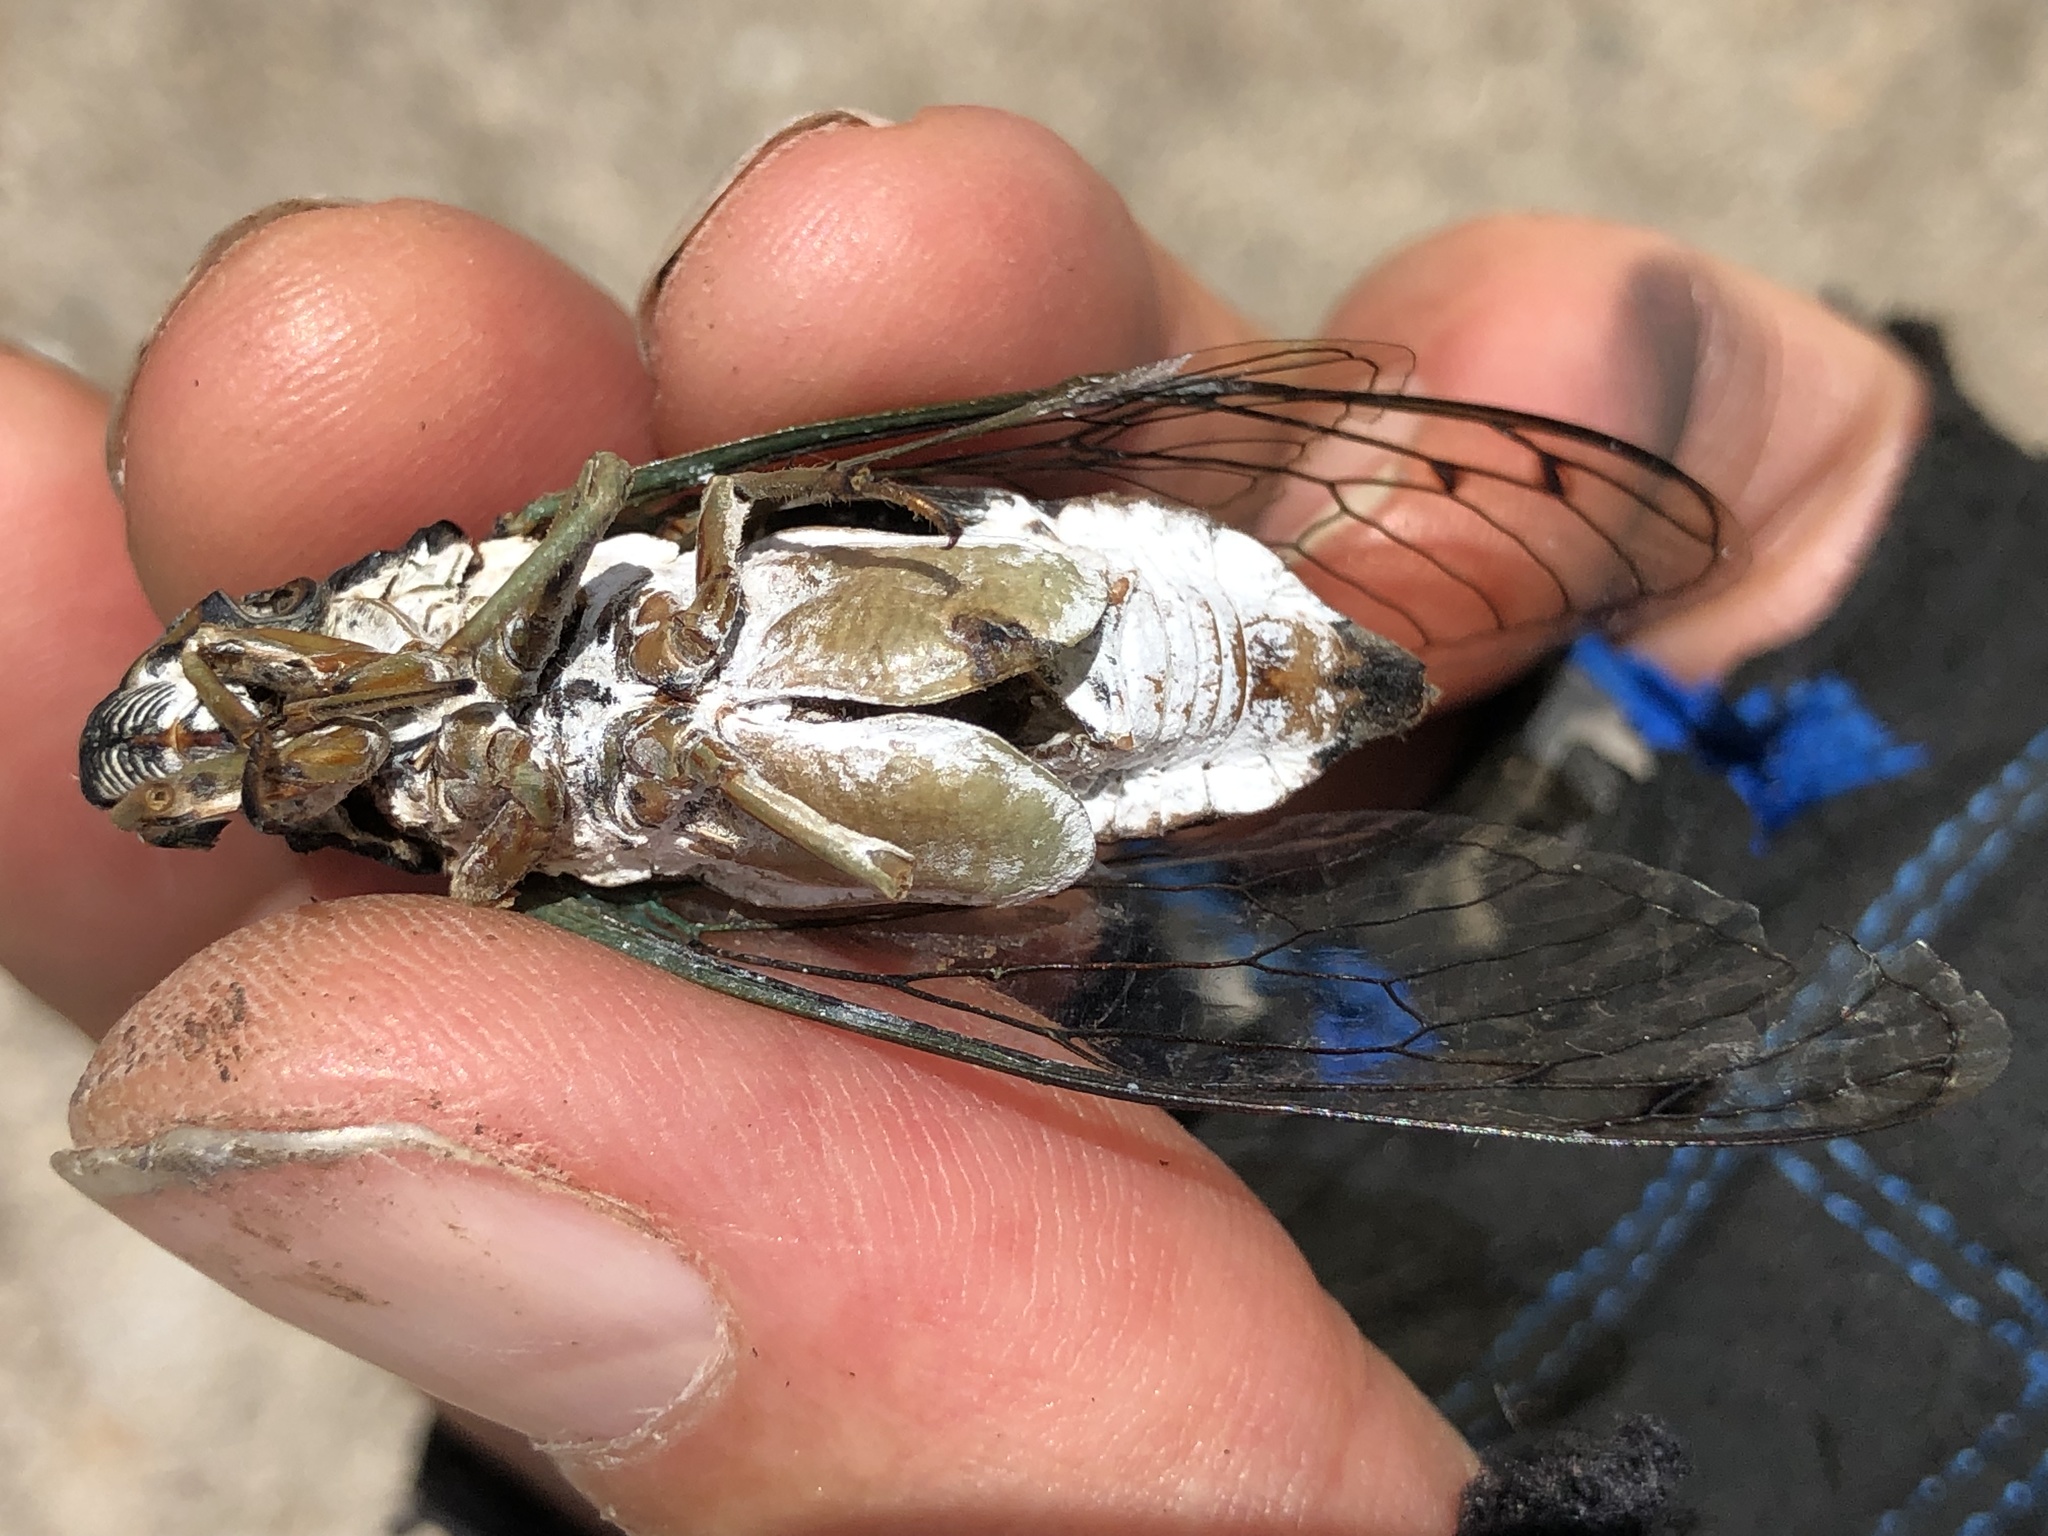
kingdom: Animalia
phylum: Arthropoda
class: Insecta
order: Hemiptera
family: Cicadidae
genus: Neotibicen
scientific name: Neotibicen tibicen
